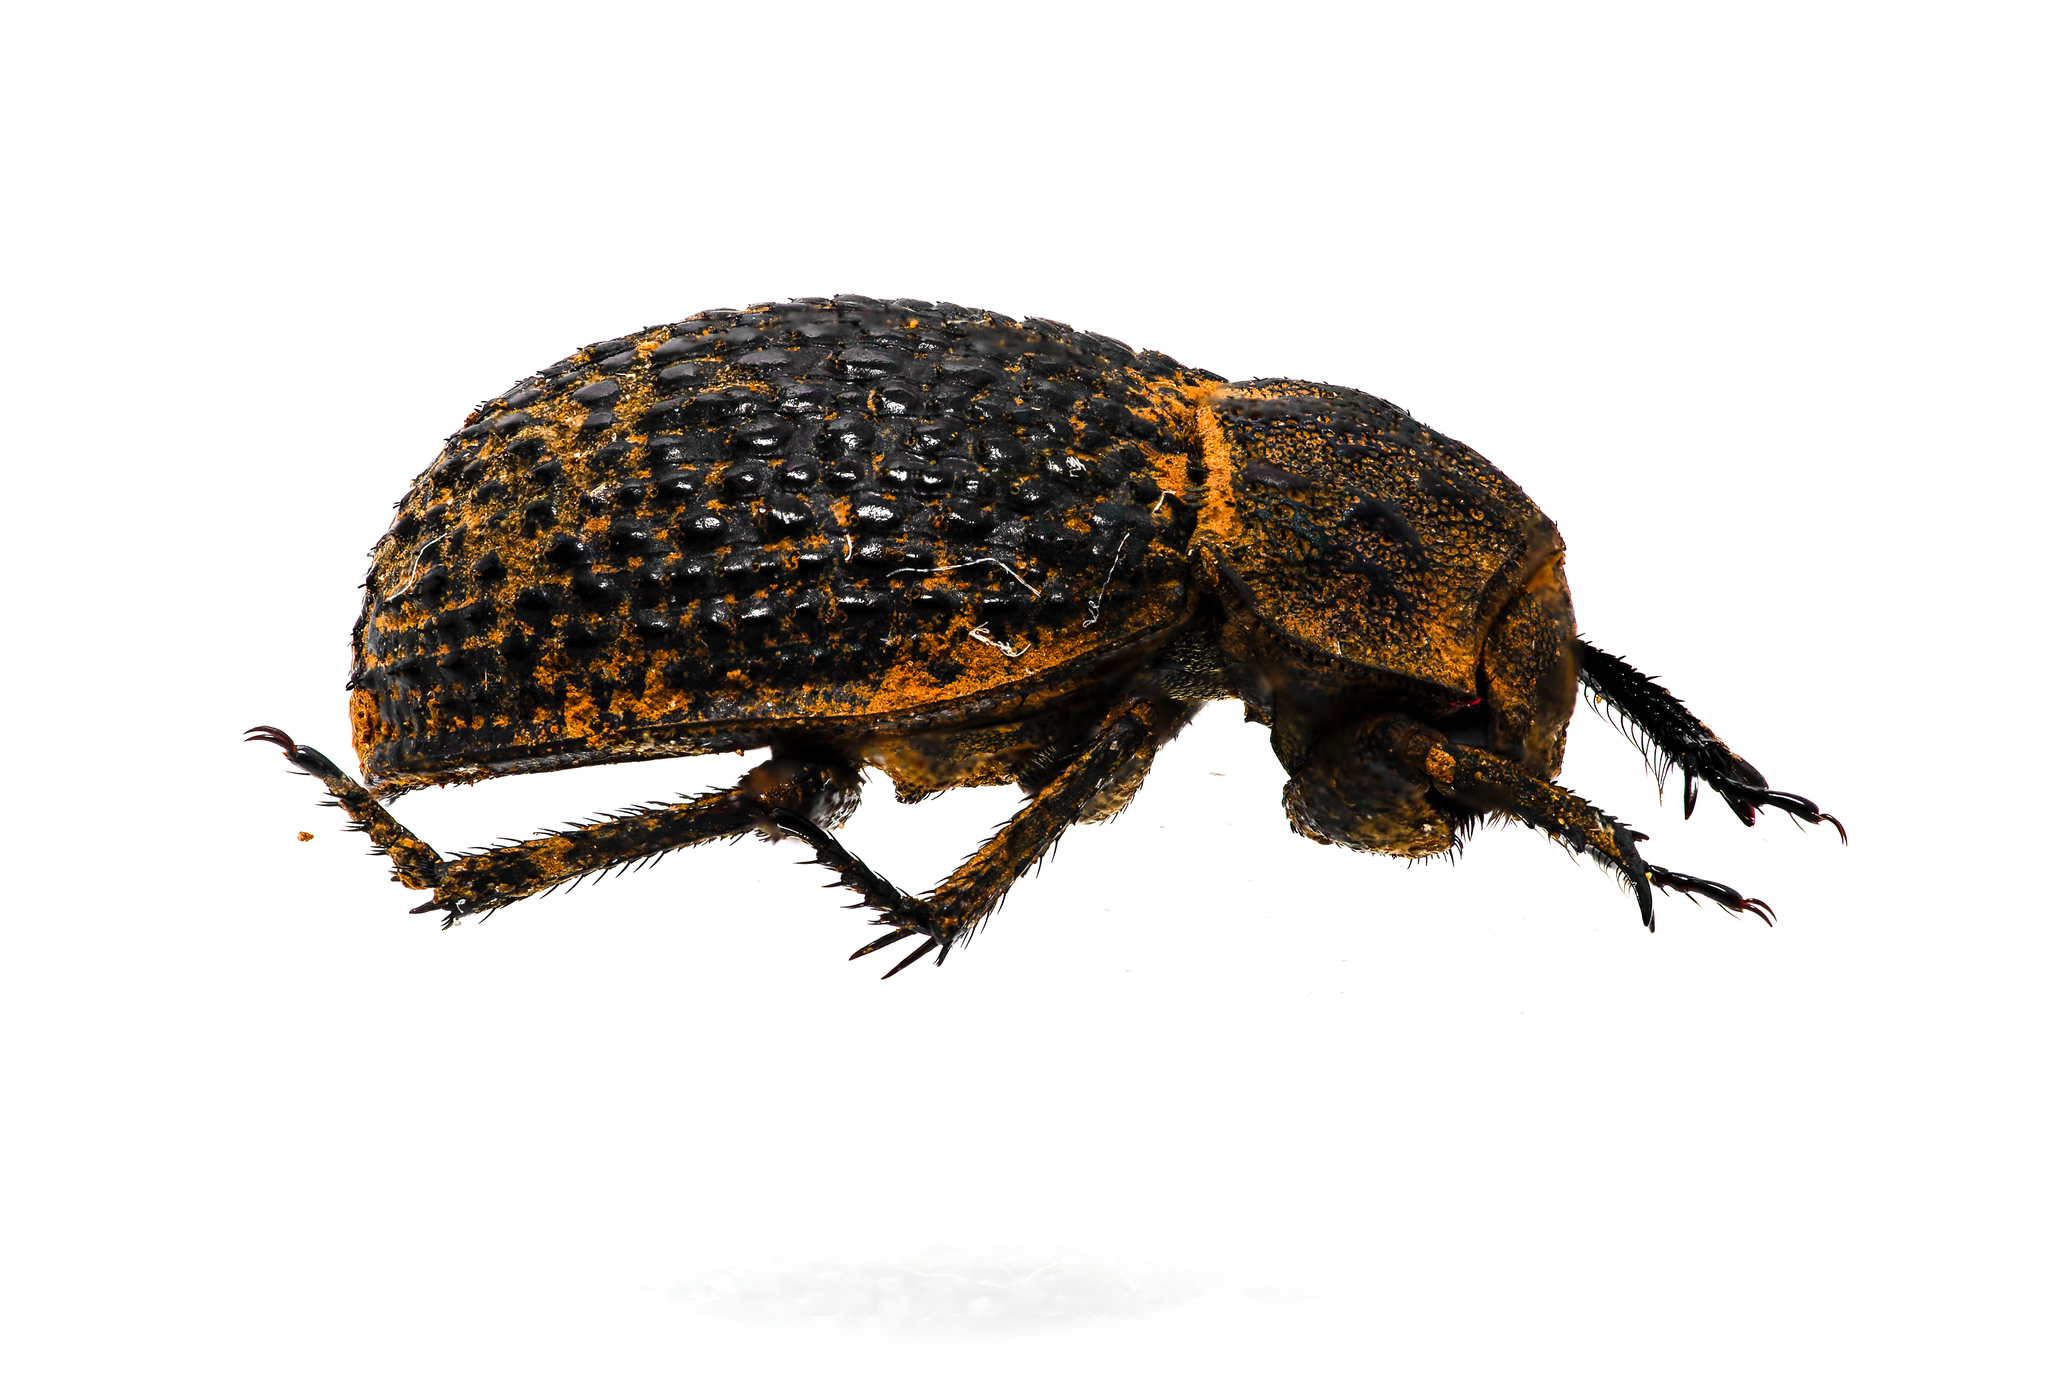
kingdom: Animalia
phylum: Arthropoda
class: Insecta
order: Coleoptera
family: Trogidae
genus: Trox
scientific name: Trox hispanicus
